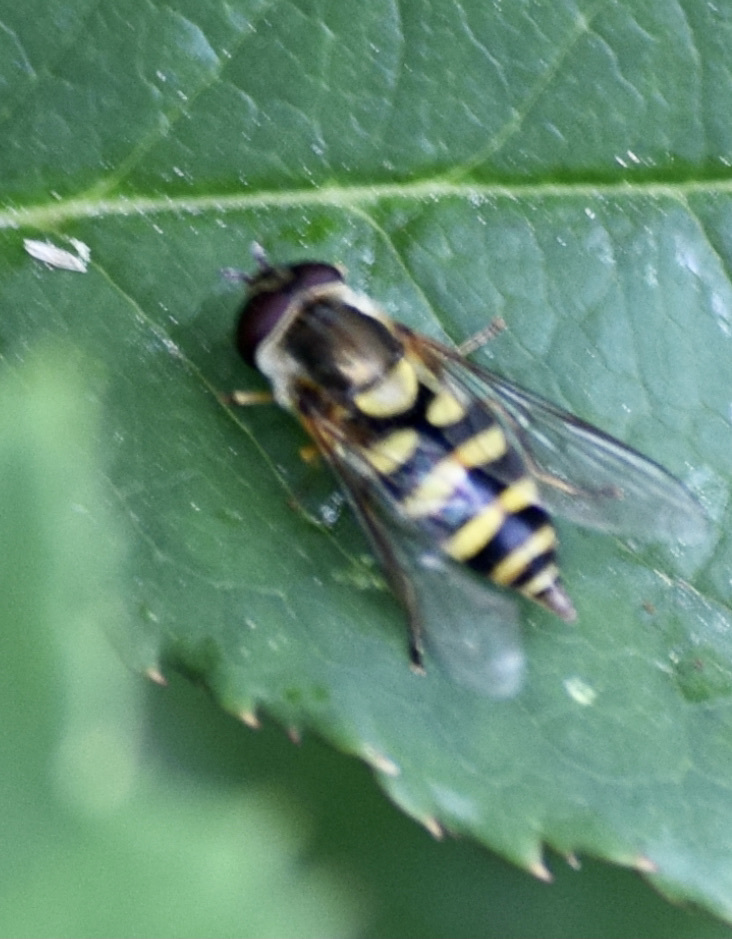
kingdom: Animalia
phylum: Arthropoda
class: Insecta
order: Diptera
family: Syrphidae
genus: Syrphus
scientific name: Syrphus
